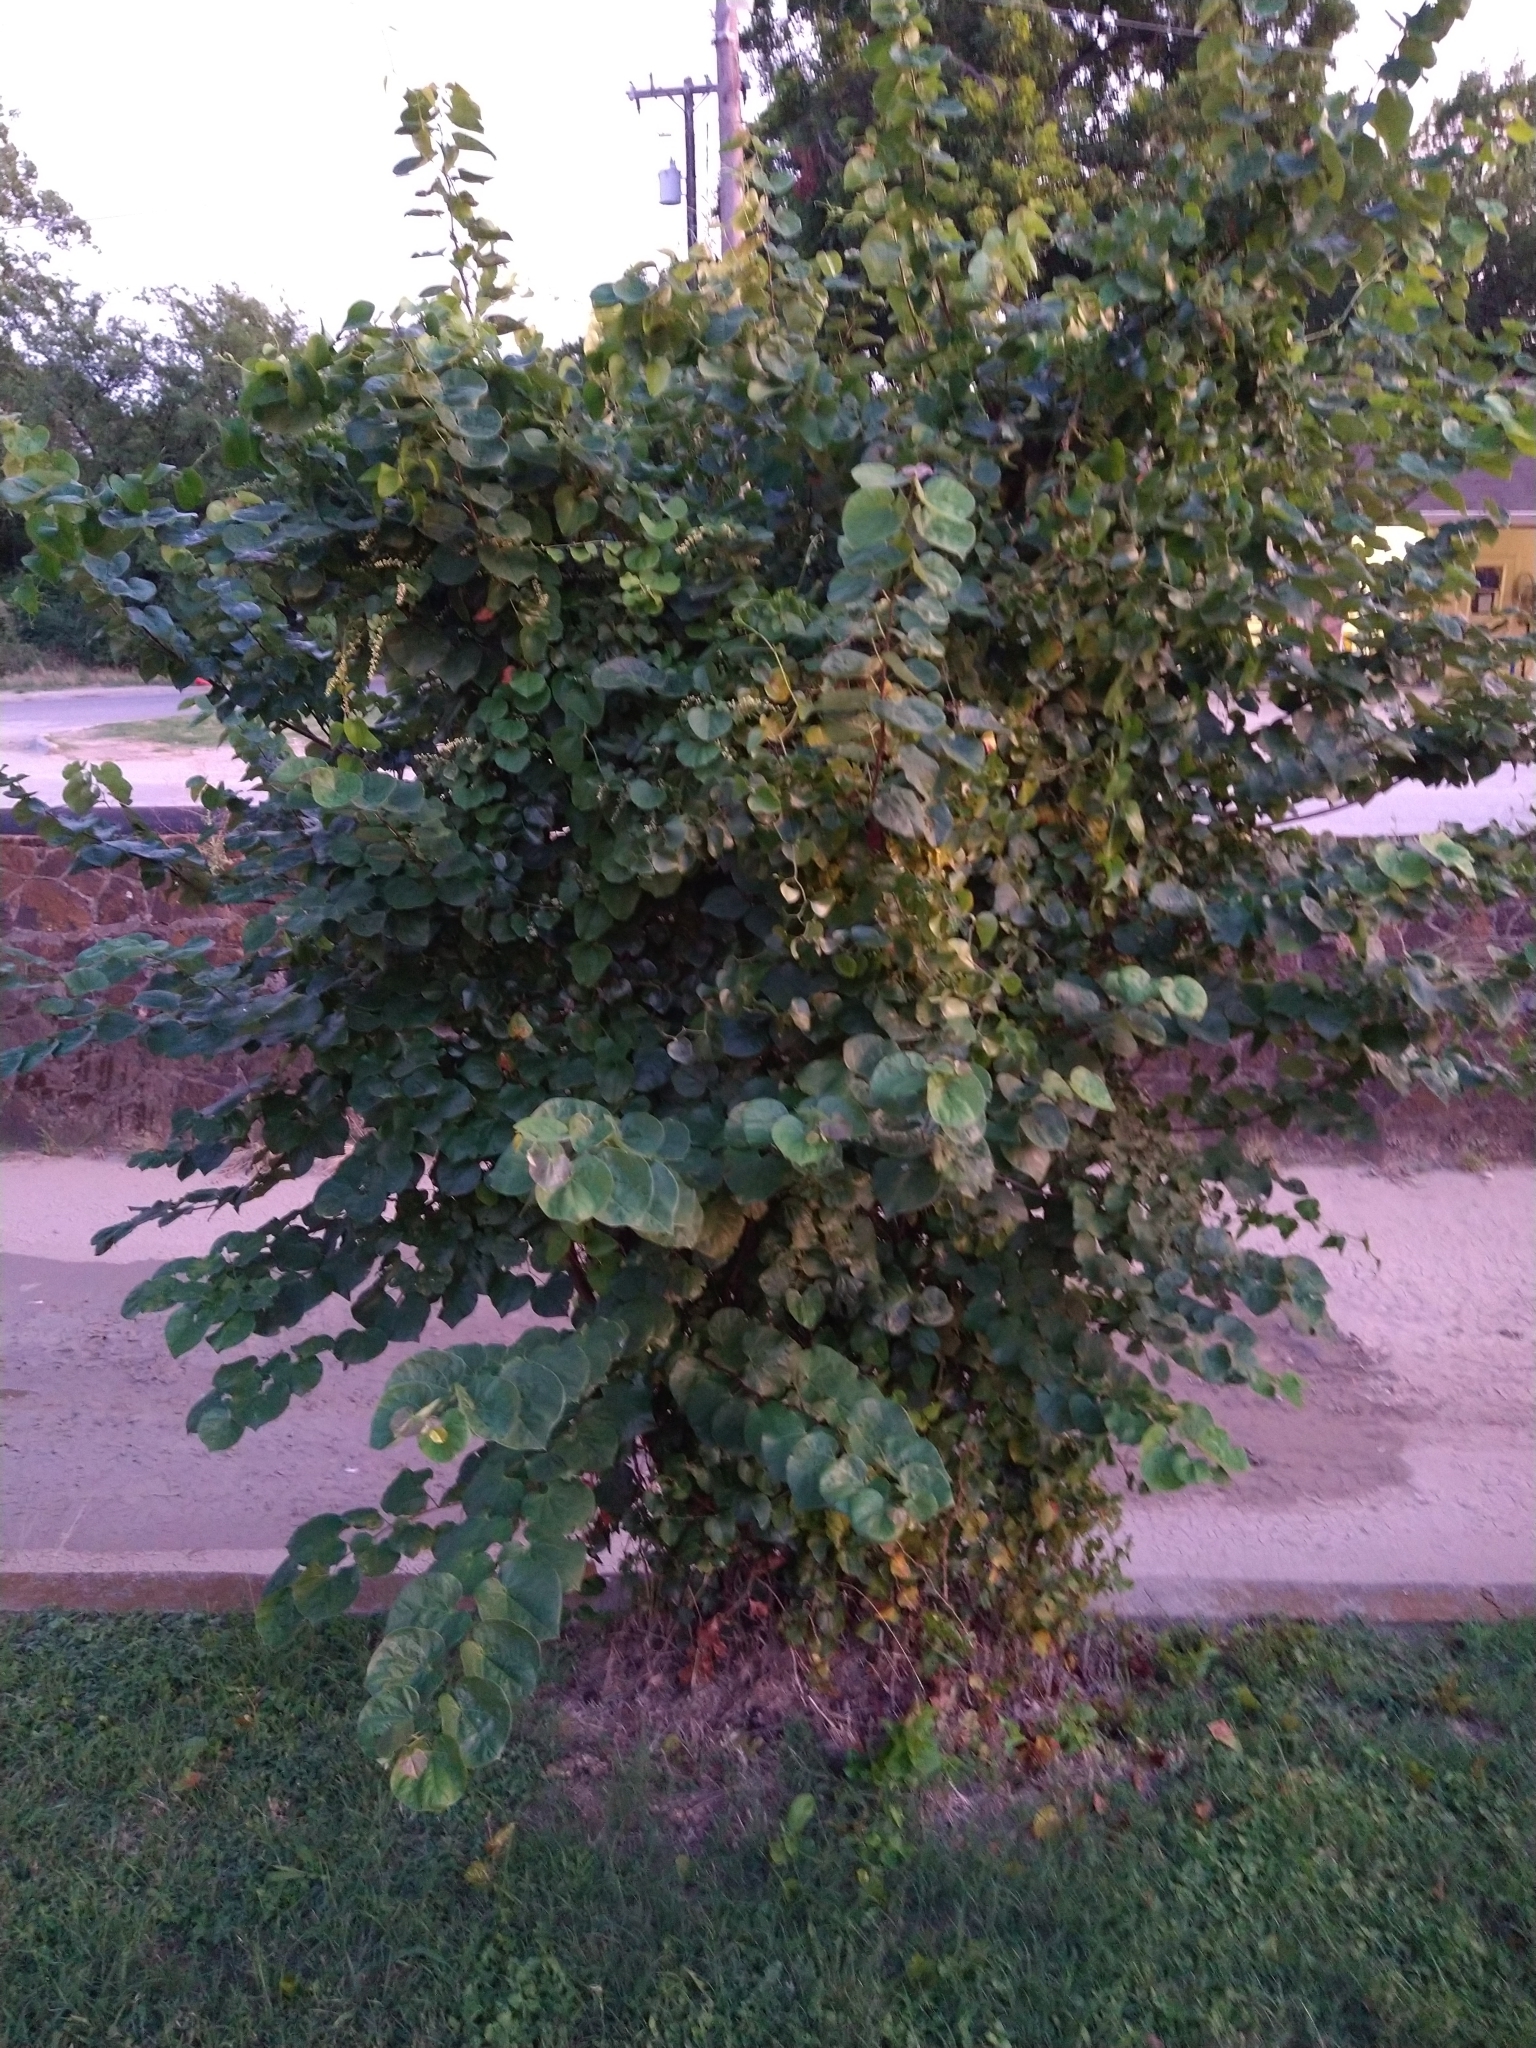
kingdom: Plantae
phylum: Tracheophyta
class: Magnoliopsida
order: Fabales
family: Fabaceae
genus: Cercis
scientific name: Cercis canadensis
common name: Eastern redbud
